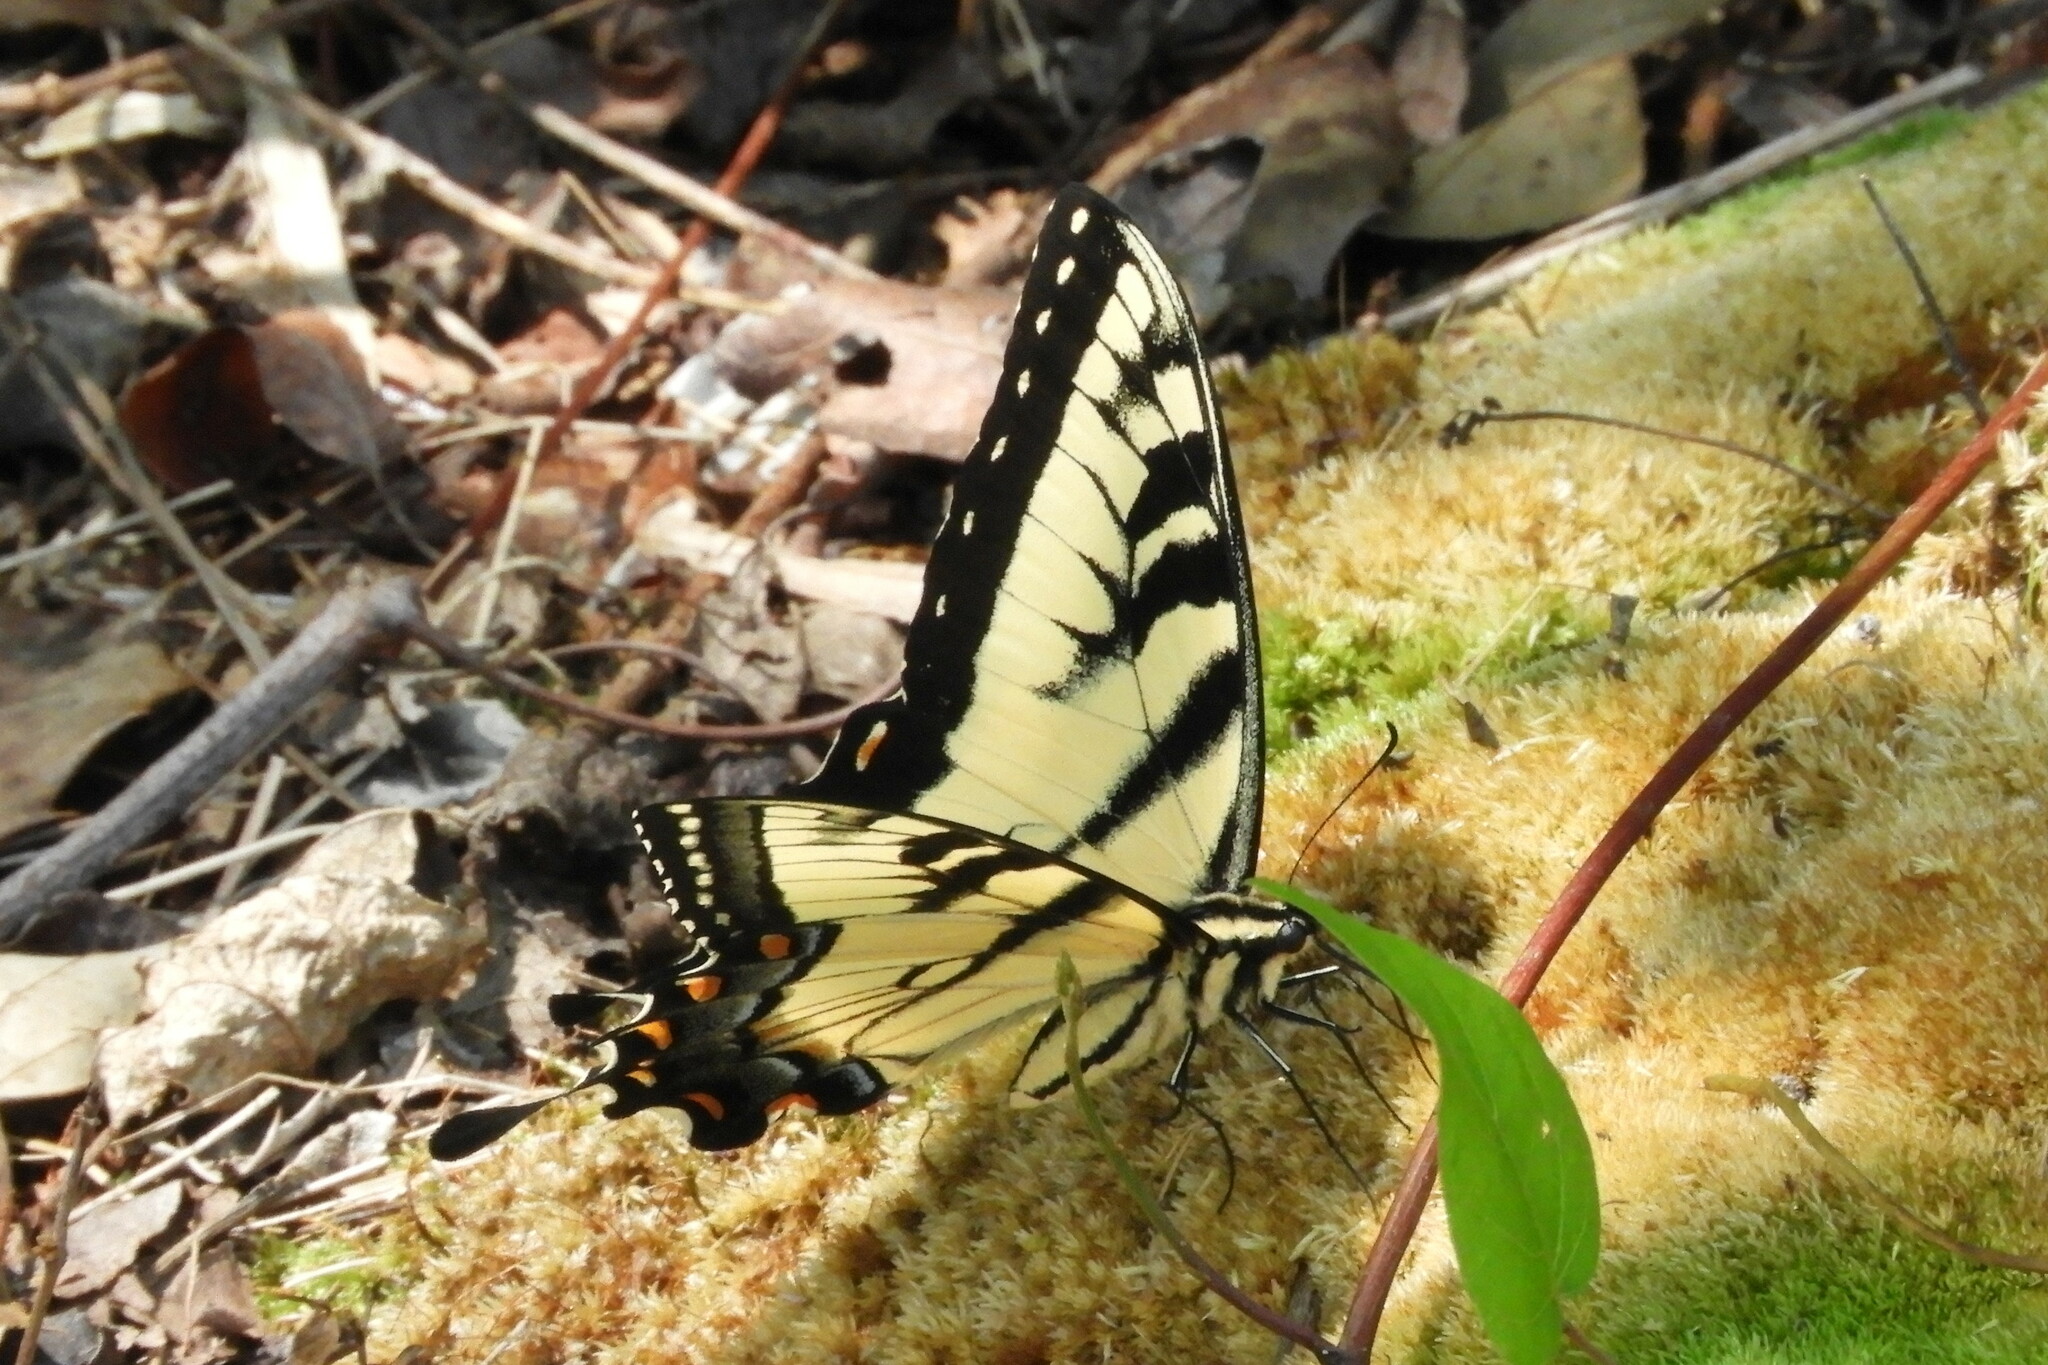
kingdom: Animalia
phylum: Arthropoda
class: Insecta
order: Lepidoptera
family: Papilionidae
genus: Papilio
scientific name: Papilio glaucus
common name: Tiger swallowtail
